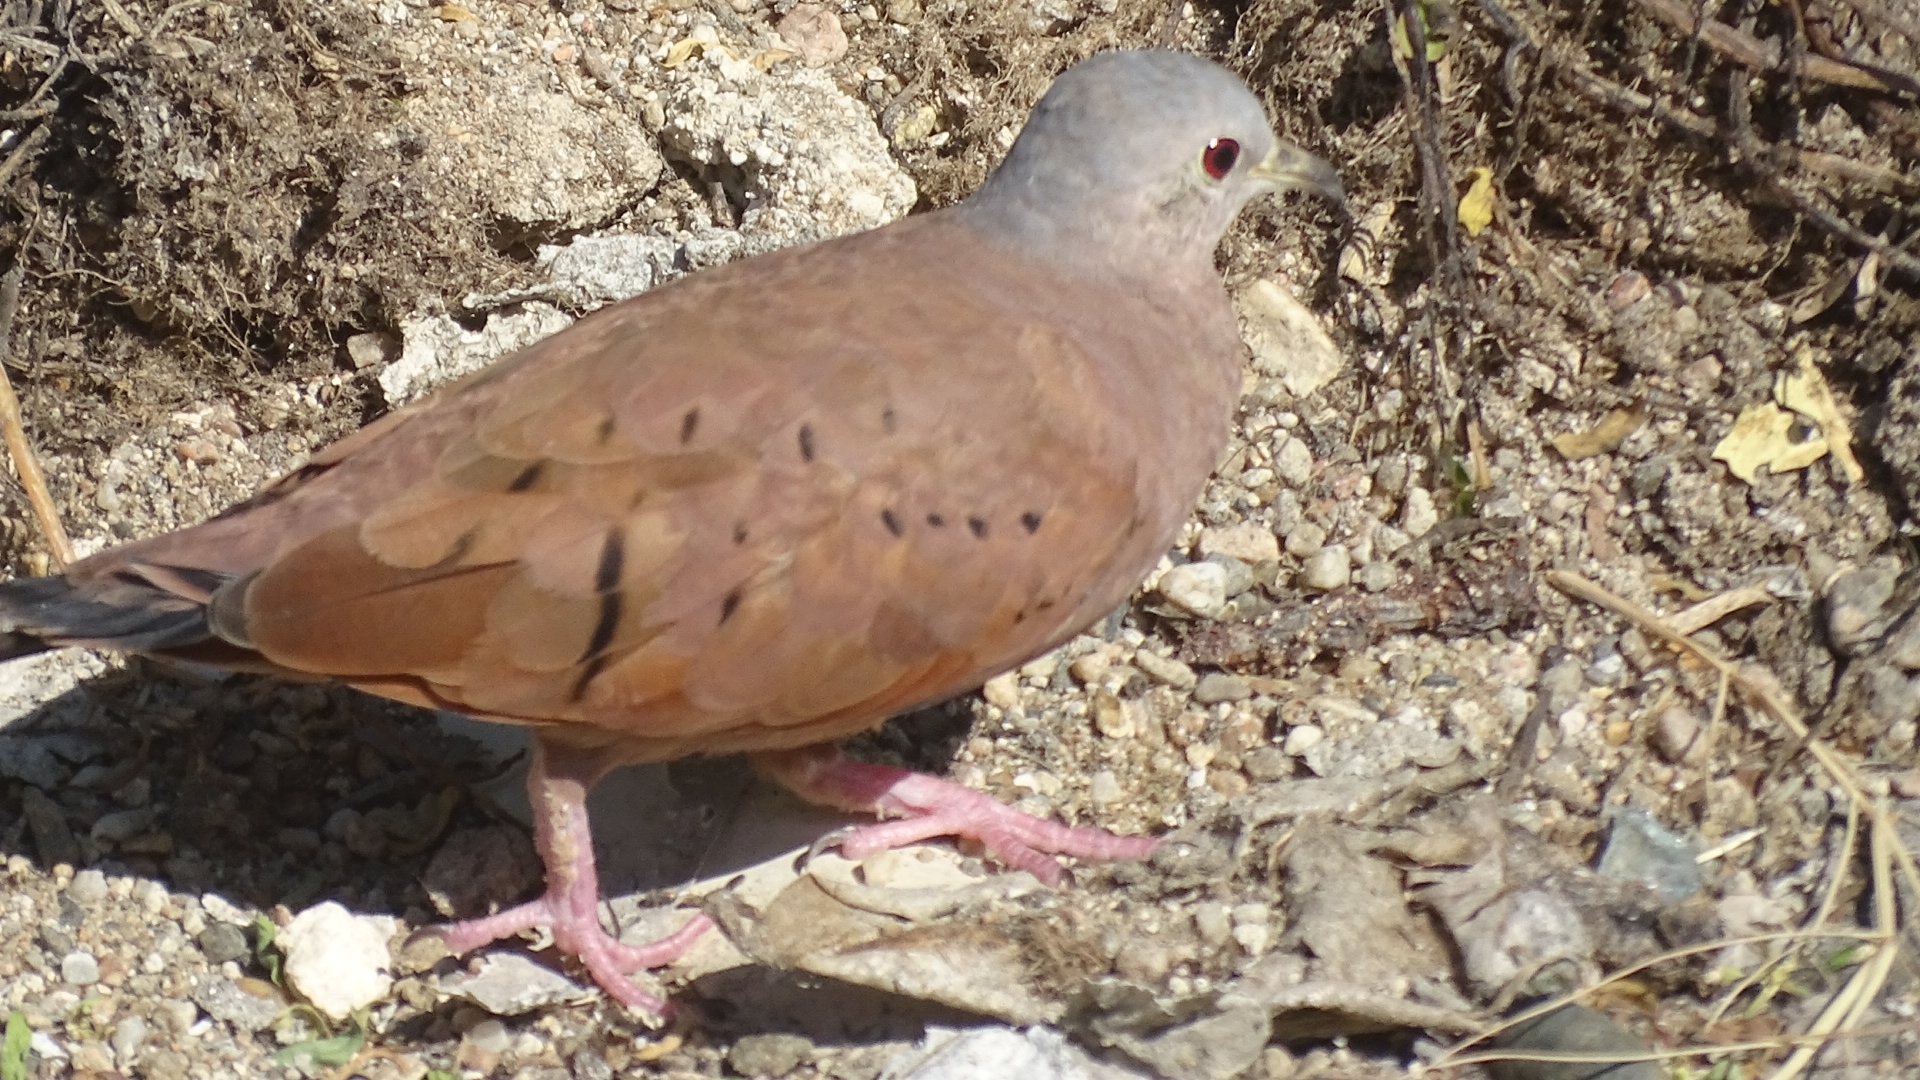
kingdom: Animalia
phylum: Chordata
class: Aves
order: Columbiformes
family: Columbidae
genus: Columbina
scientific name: Columbina talpacoti
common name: Ruddy ground dove
